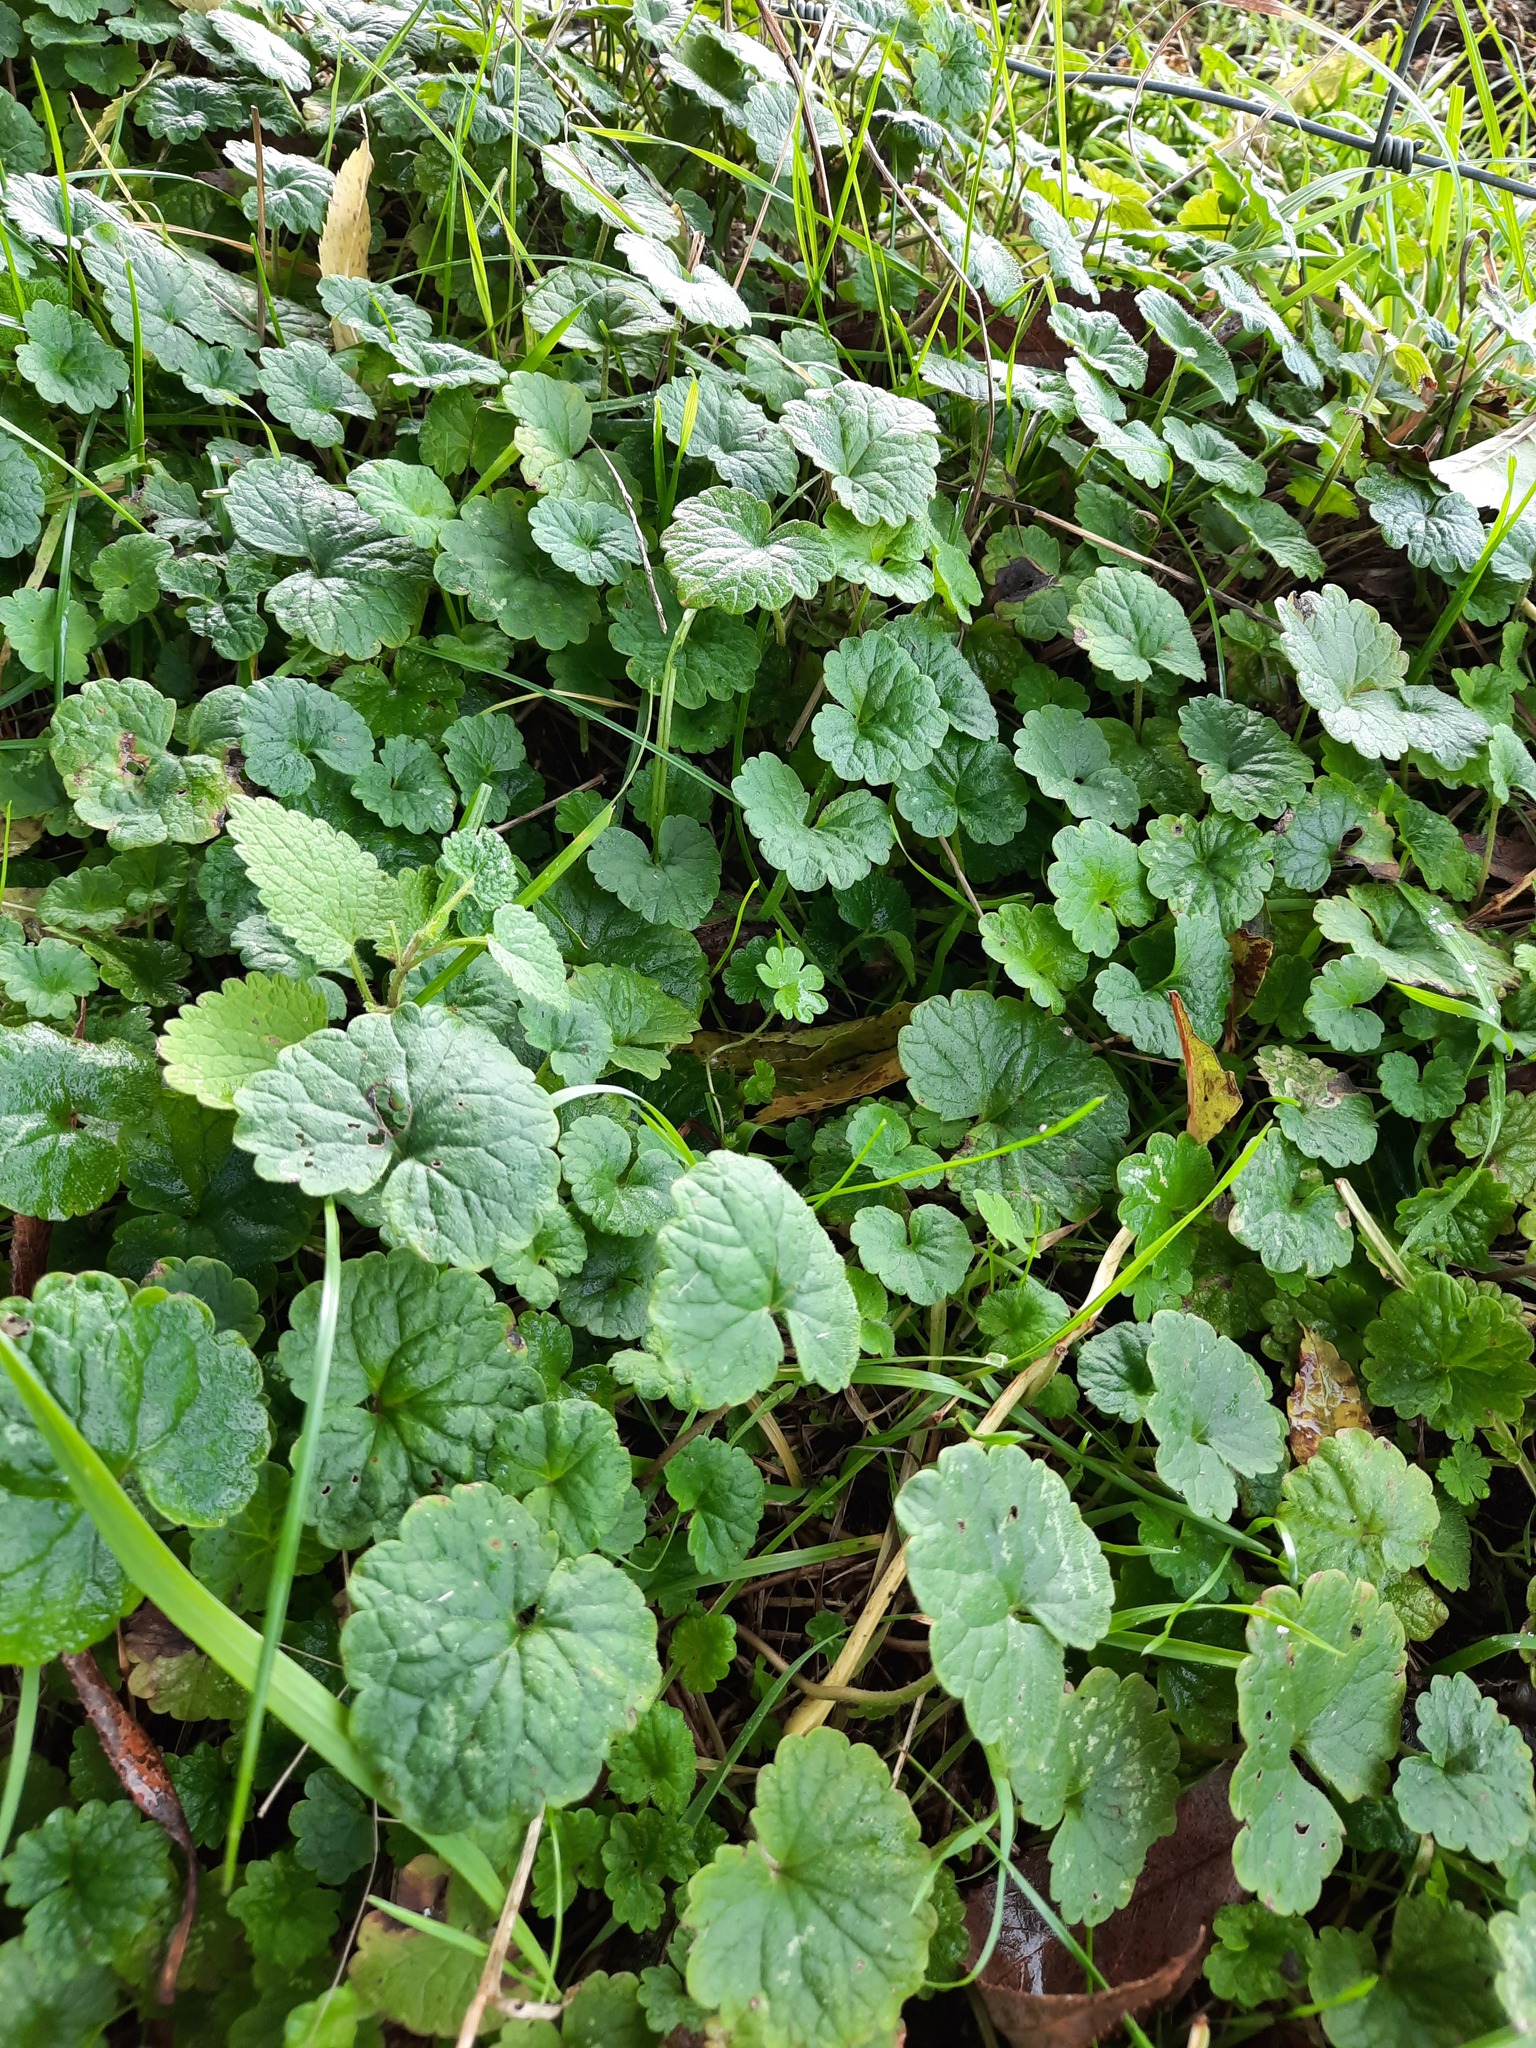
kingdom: Plantae
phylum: Tracheophyta
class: Magnoliopsida
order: Lamiales
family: Lamiaceae
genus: Glechoma
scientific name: Glechoma hederacea
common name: Ground ivy
